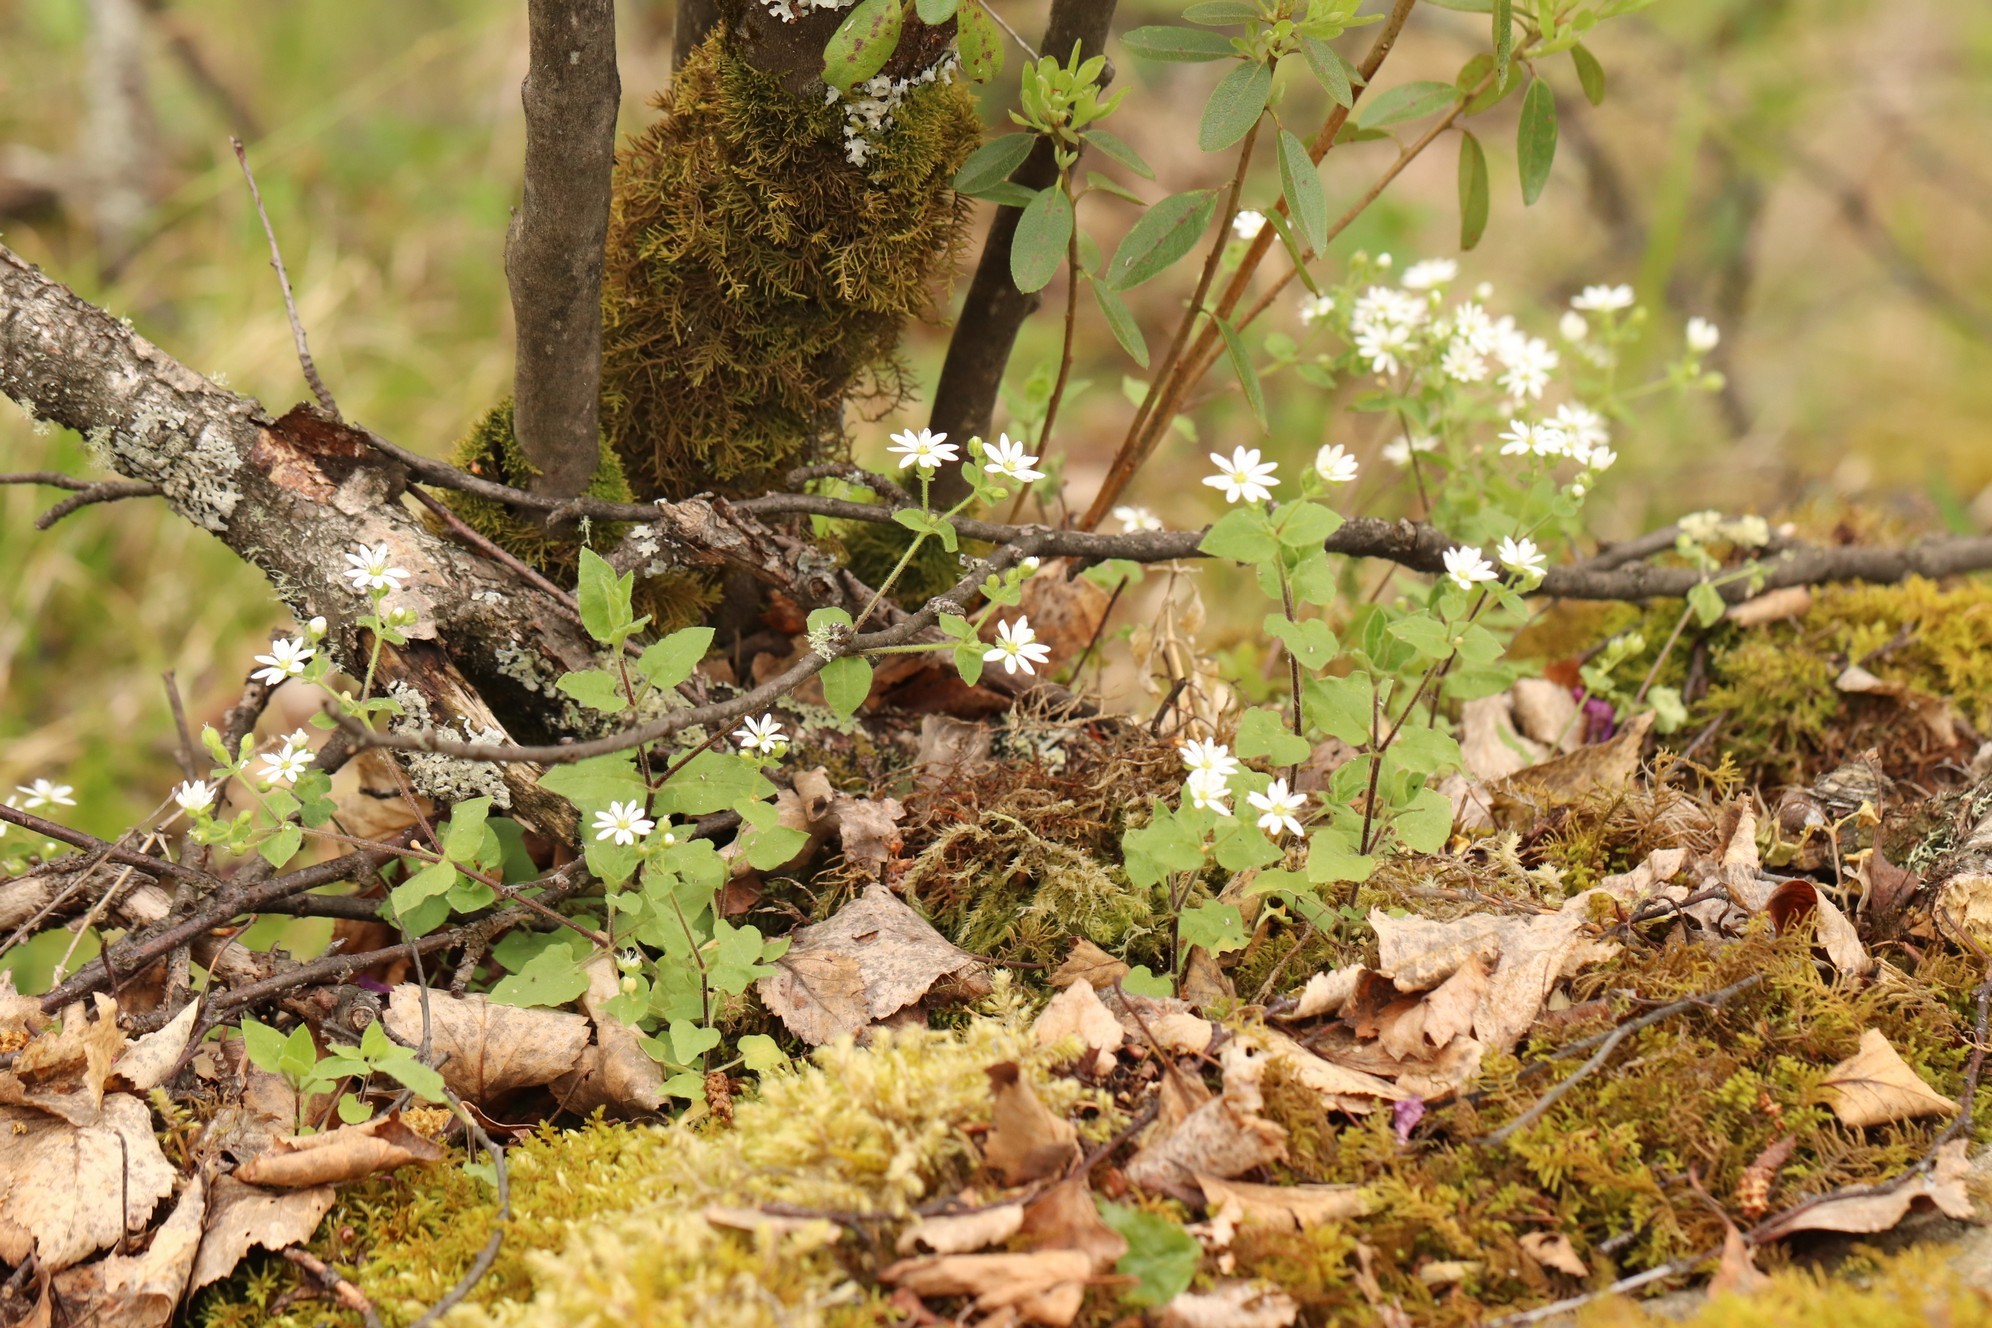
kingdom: Plantae
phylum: Tracheophyta
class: Magnoliopsida
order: Caryophyllales
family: Caryophyllaceae
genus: Stellaria
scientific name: Stellaria bungeana
